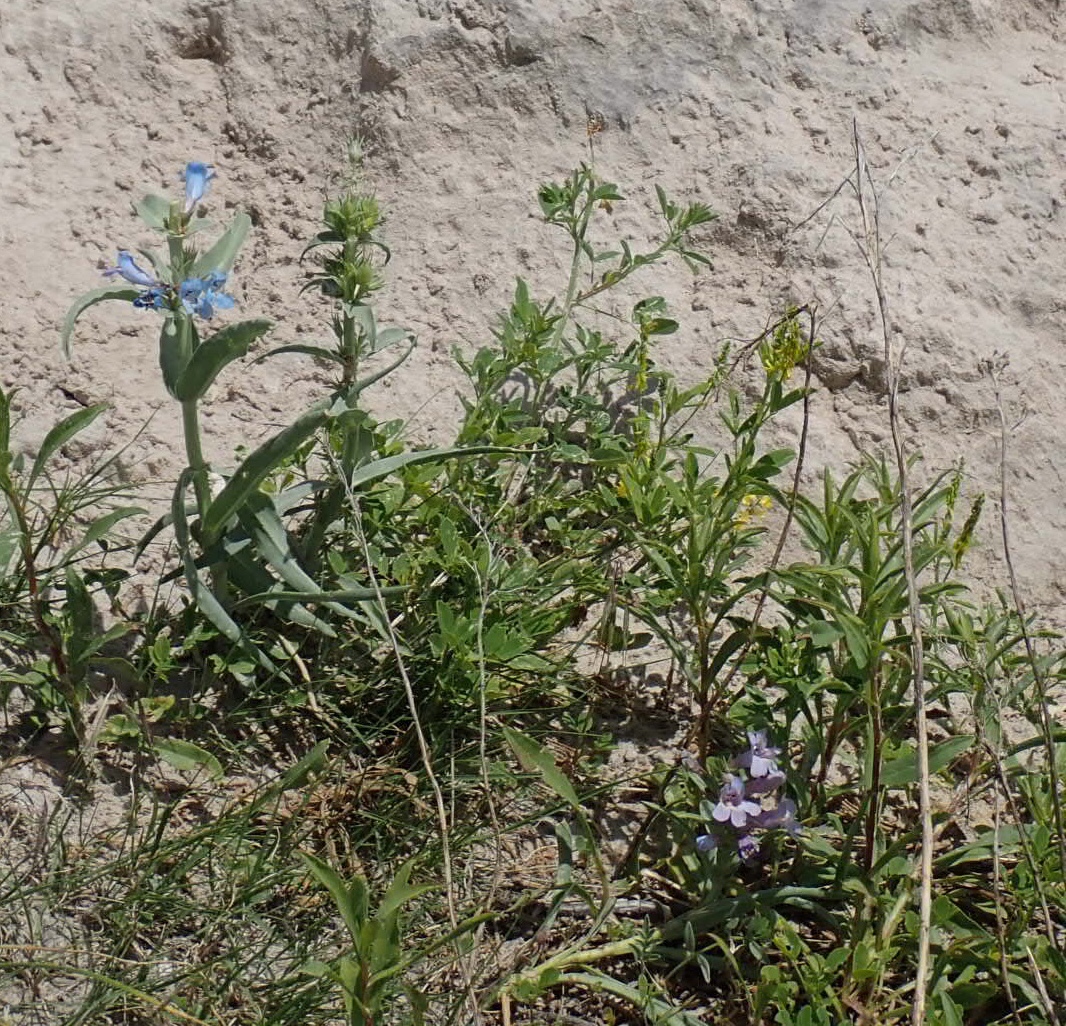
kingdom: Plantae
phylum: Tracheophyta
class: Magnoliopsida
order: Lamiales
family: Plantaginaceae
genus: Penstemon
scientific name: Penstemon albidus
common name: White beardtongue
